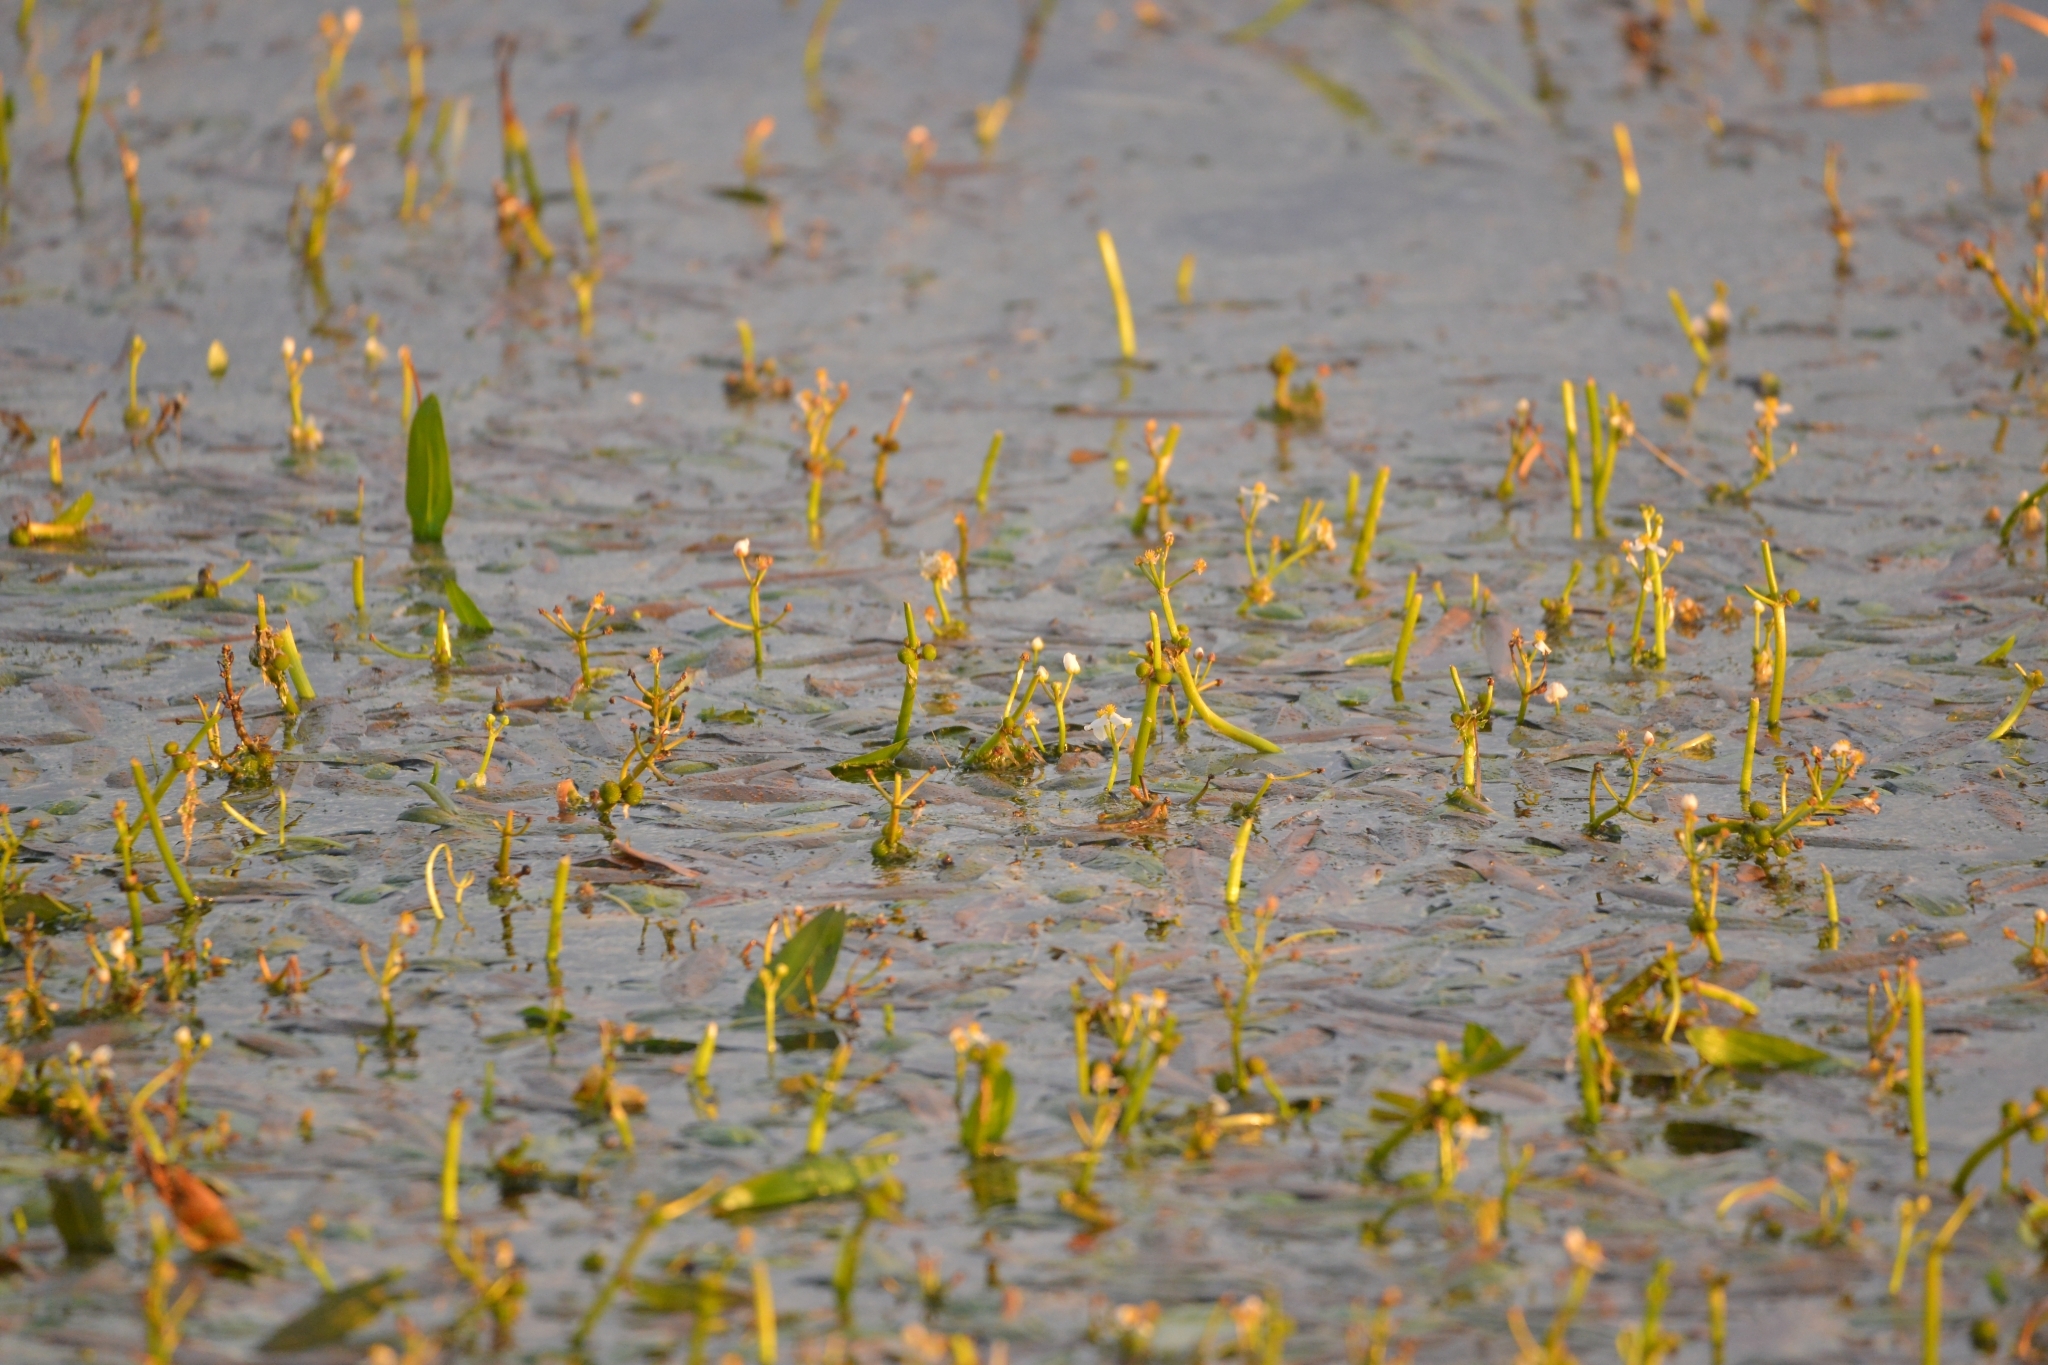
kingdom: Plantae
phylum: Tracheophyta
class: Liliopsida
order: Alismatales
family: Alismataceae
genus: Sagittaria
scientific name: Sagittaria natans
